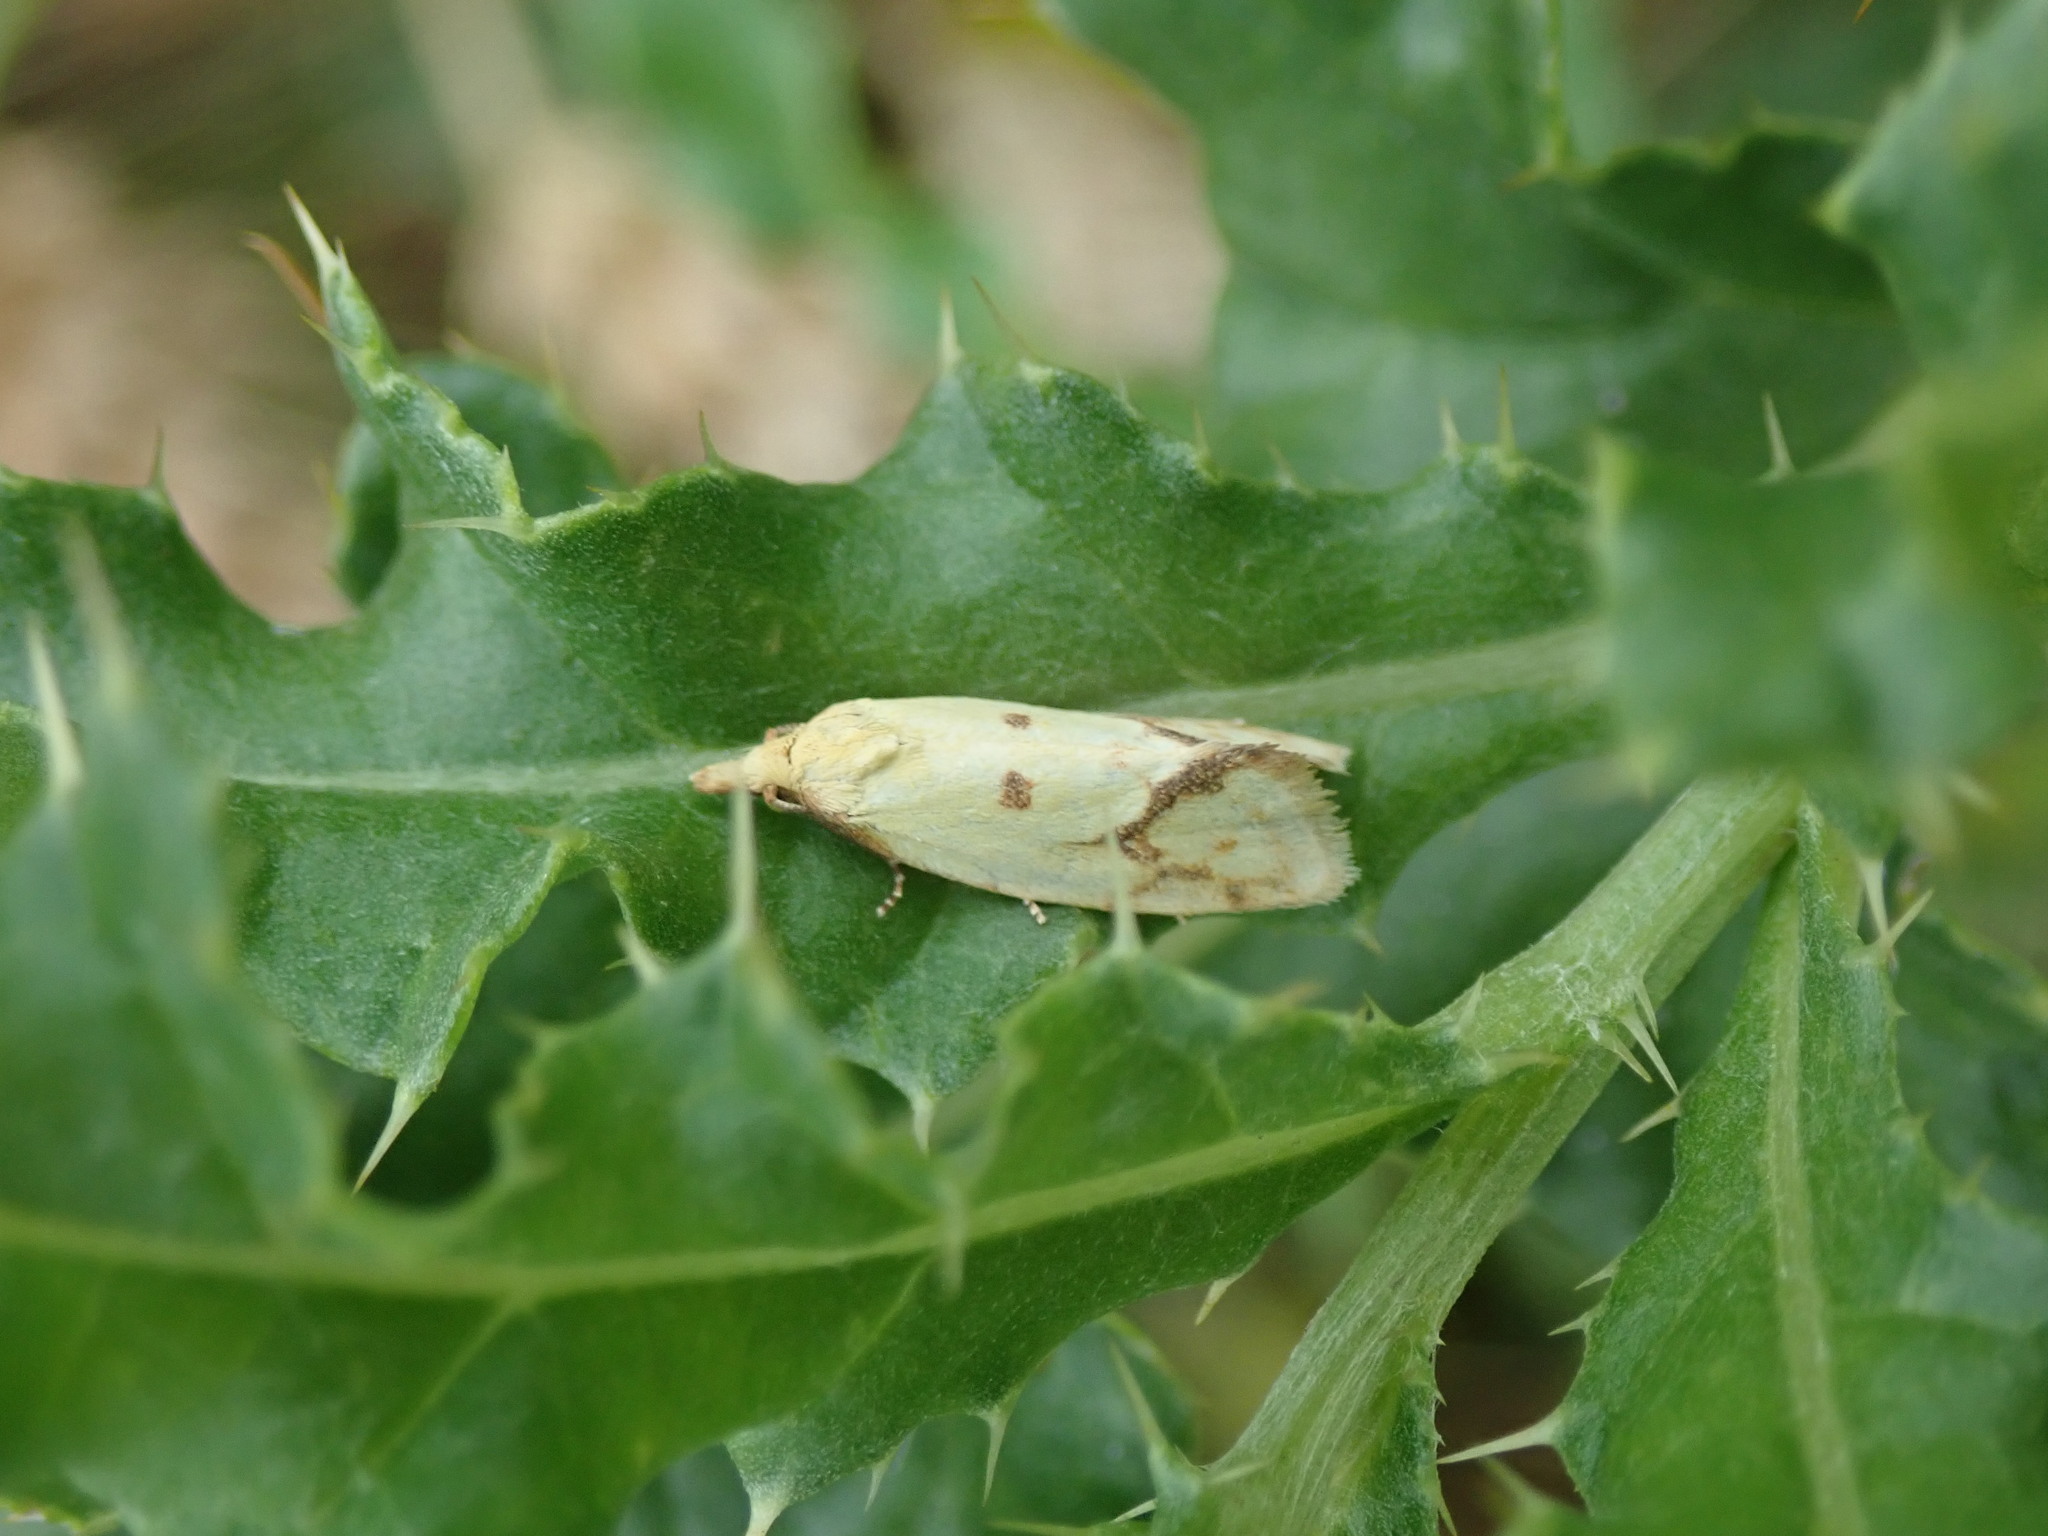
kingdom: Animalia
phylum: Arthropoda
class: Insecta
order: Lepidoptera
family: Tortricidae
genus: Agapeta
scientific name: Agapeta hamana
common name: Common yellow conch
